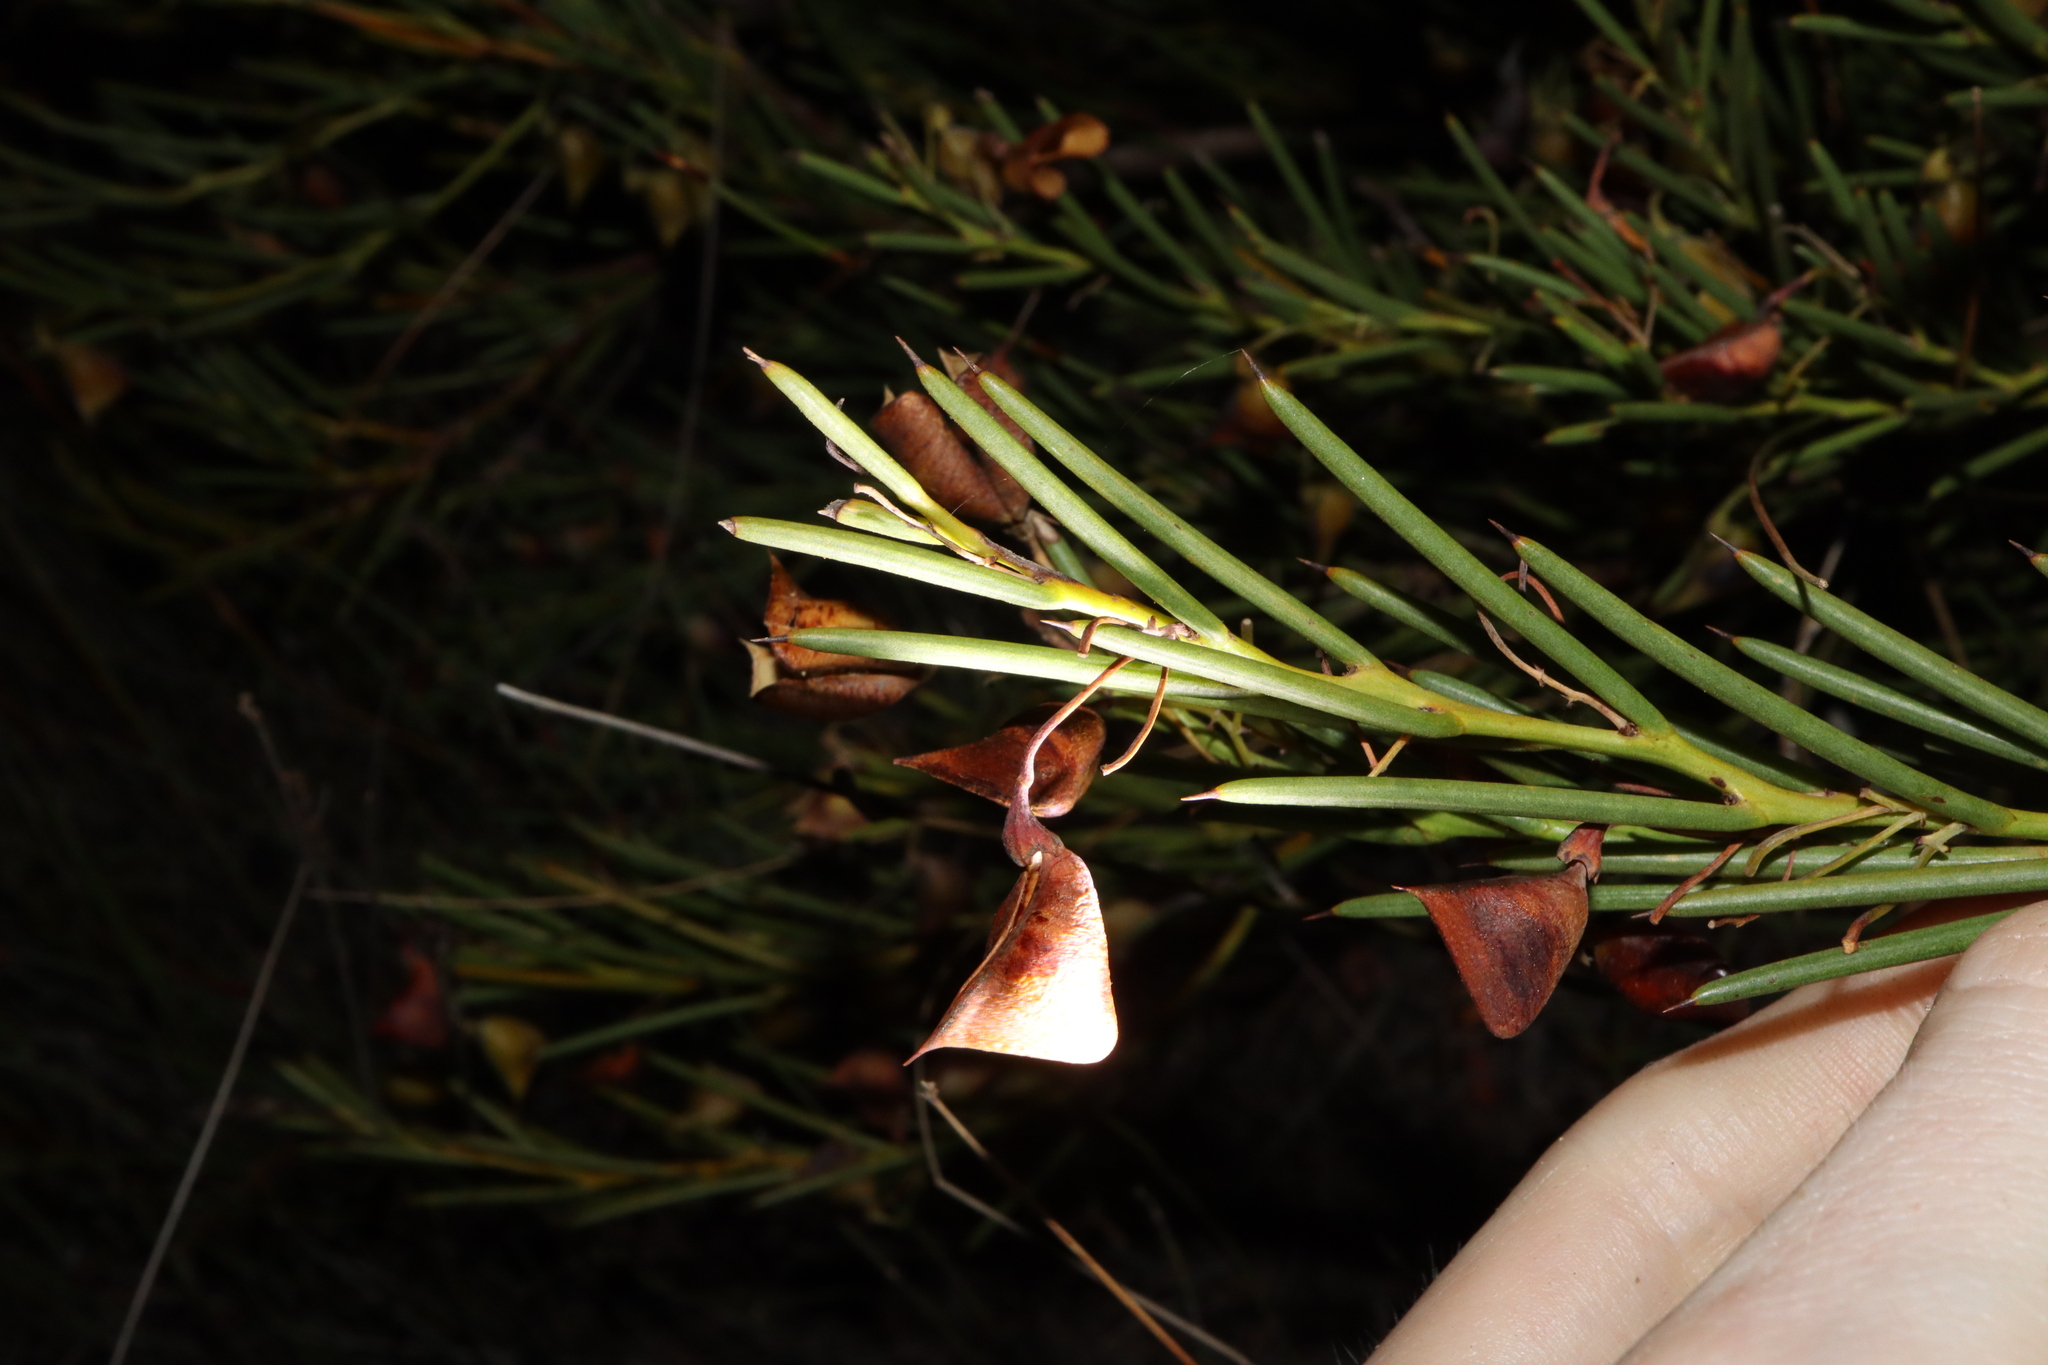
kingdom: Plantae
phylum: Tracheophyta
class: Magnoliopsida
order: Fabales
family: Fabaceae
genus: Daviesia
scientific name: Daviesia teretifolia
